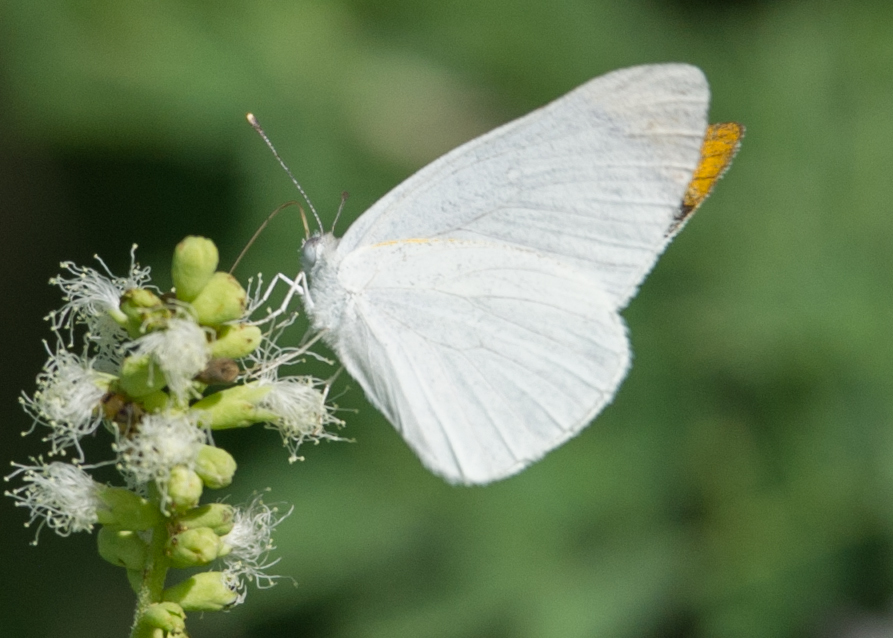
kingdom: Animalia
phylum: Arthropoda
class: Insecta
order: Lepidoptera
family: Pieridae
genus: Teracolus
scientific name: Teracolus agoye
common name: Speckled sulphur tip
